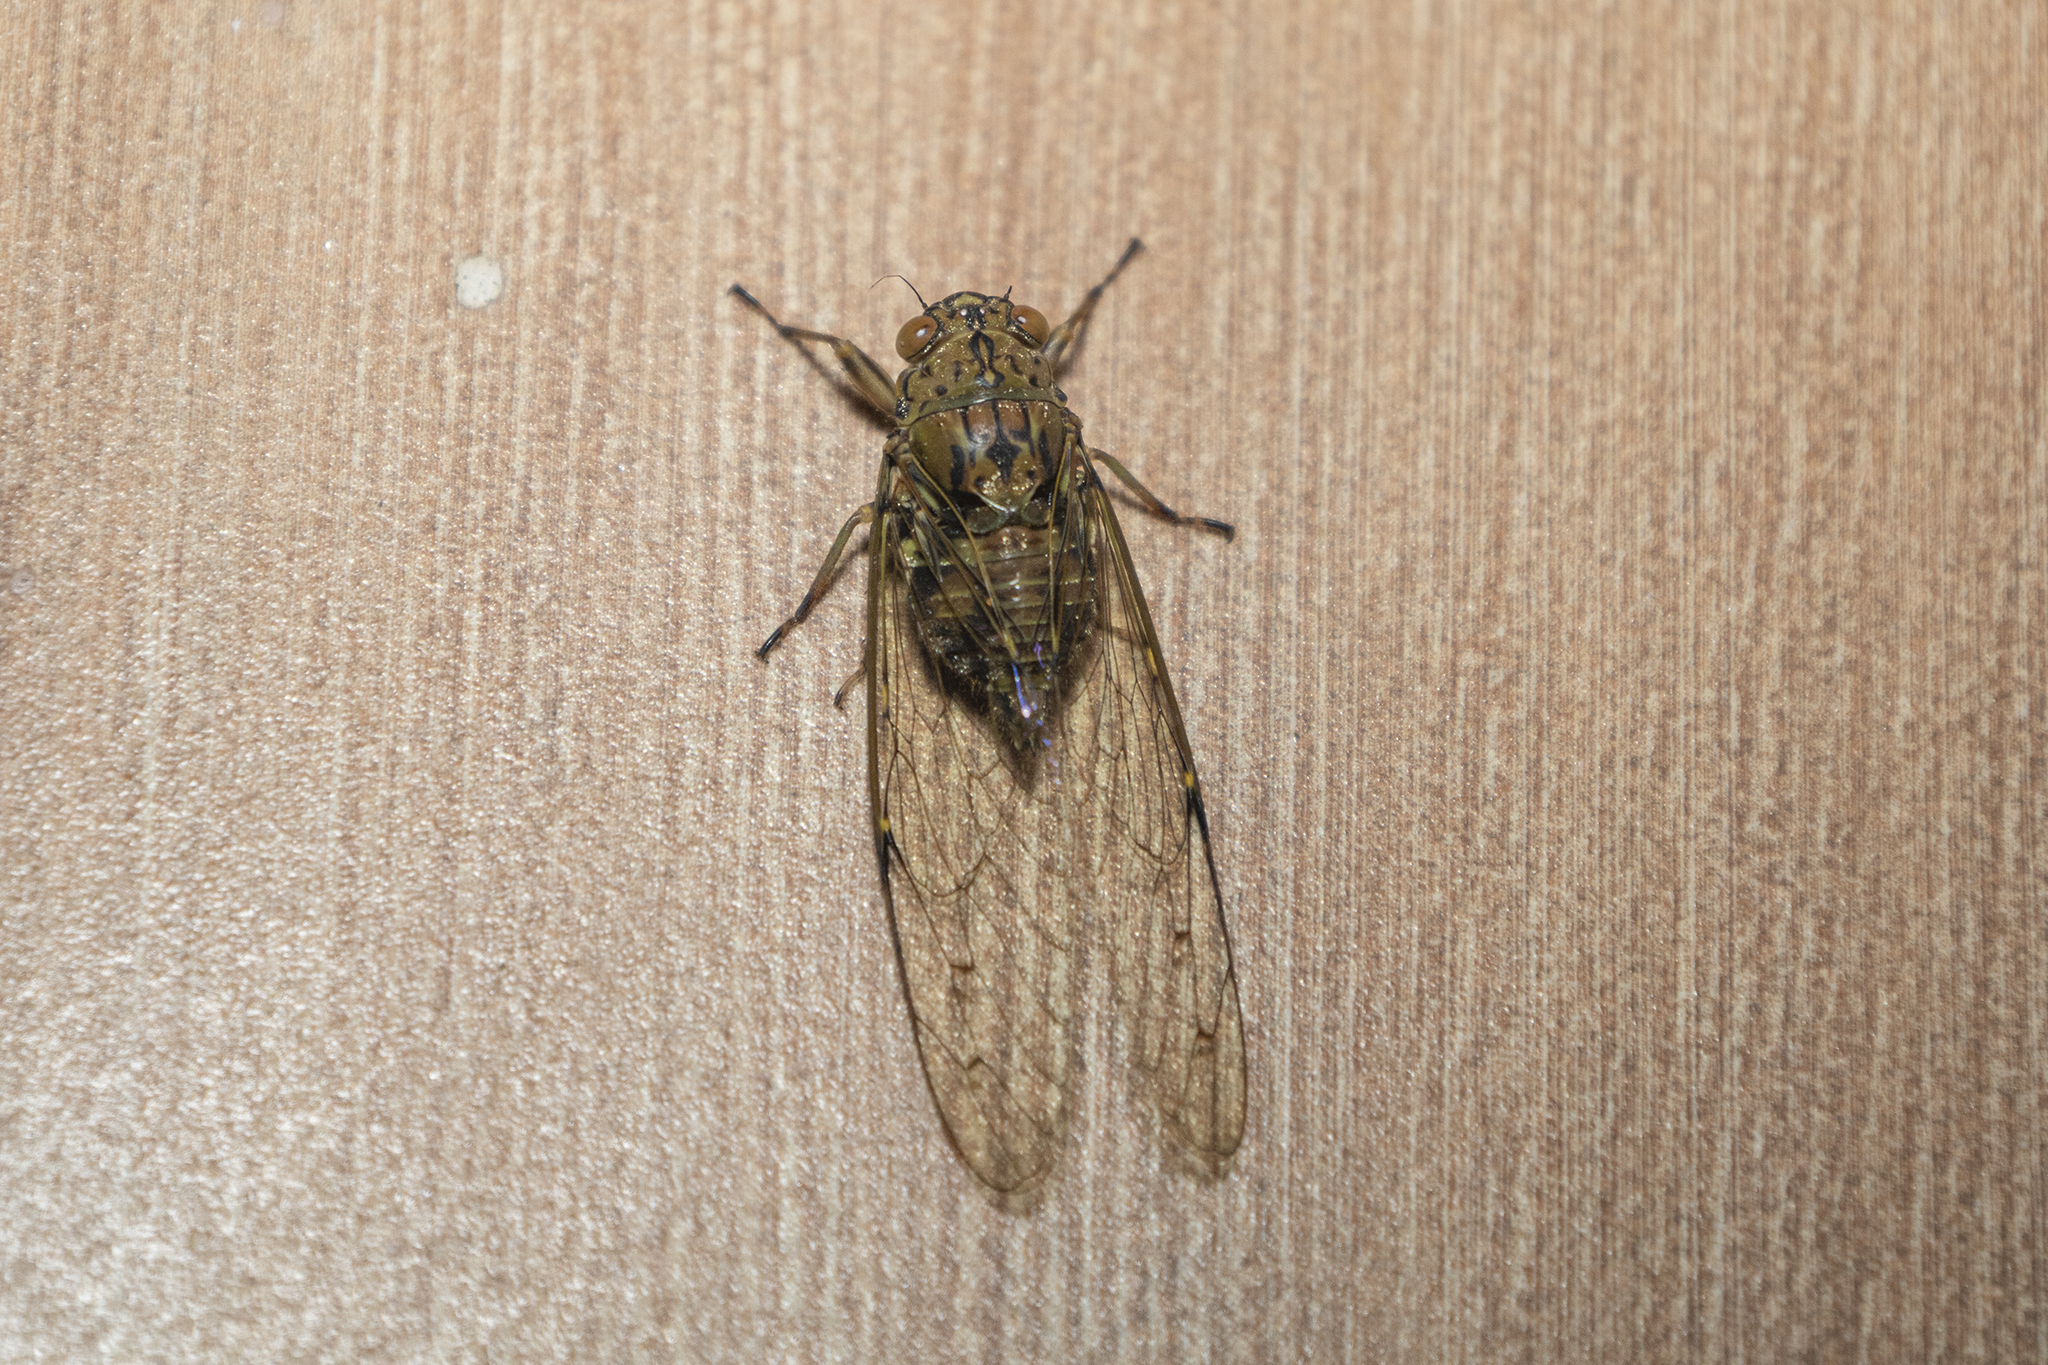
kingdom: Animalia
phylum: Arthropoda
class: Insecta
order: Hemiptera
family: Cicadidae
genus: Mata
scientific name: Mata rama
